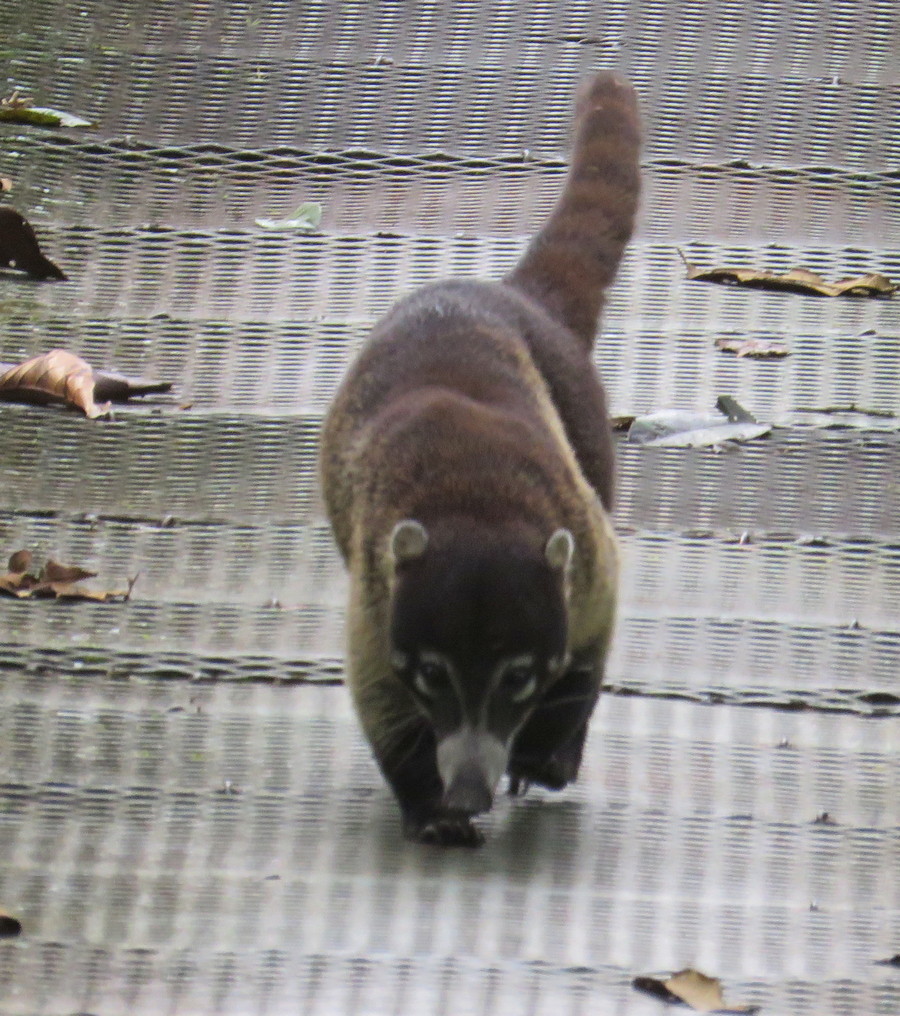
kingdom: Animalia
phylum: Chordata
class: Mammalia
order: Carnivora
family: Procyonidae
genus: Nasua
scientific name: Nasua narica
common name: White-nosed coati
